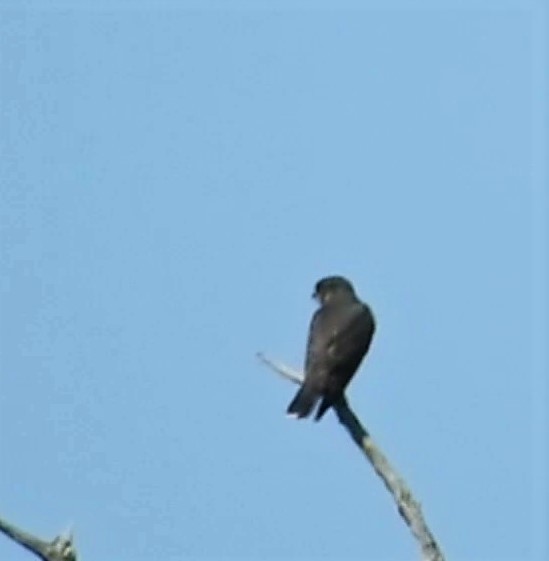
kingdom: Animalia
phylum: Chordata
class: Aves
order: Falconiformes
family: Falconidae
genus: Falco
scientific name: Falco columbarius
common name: Merlin
